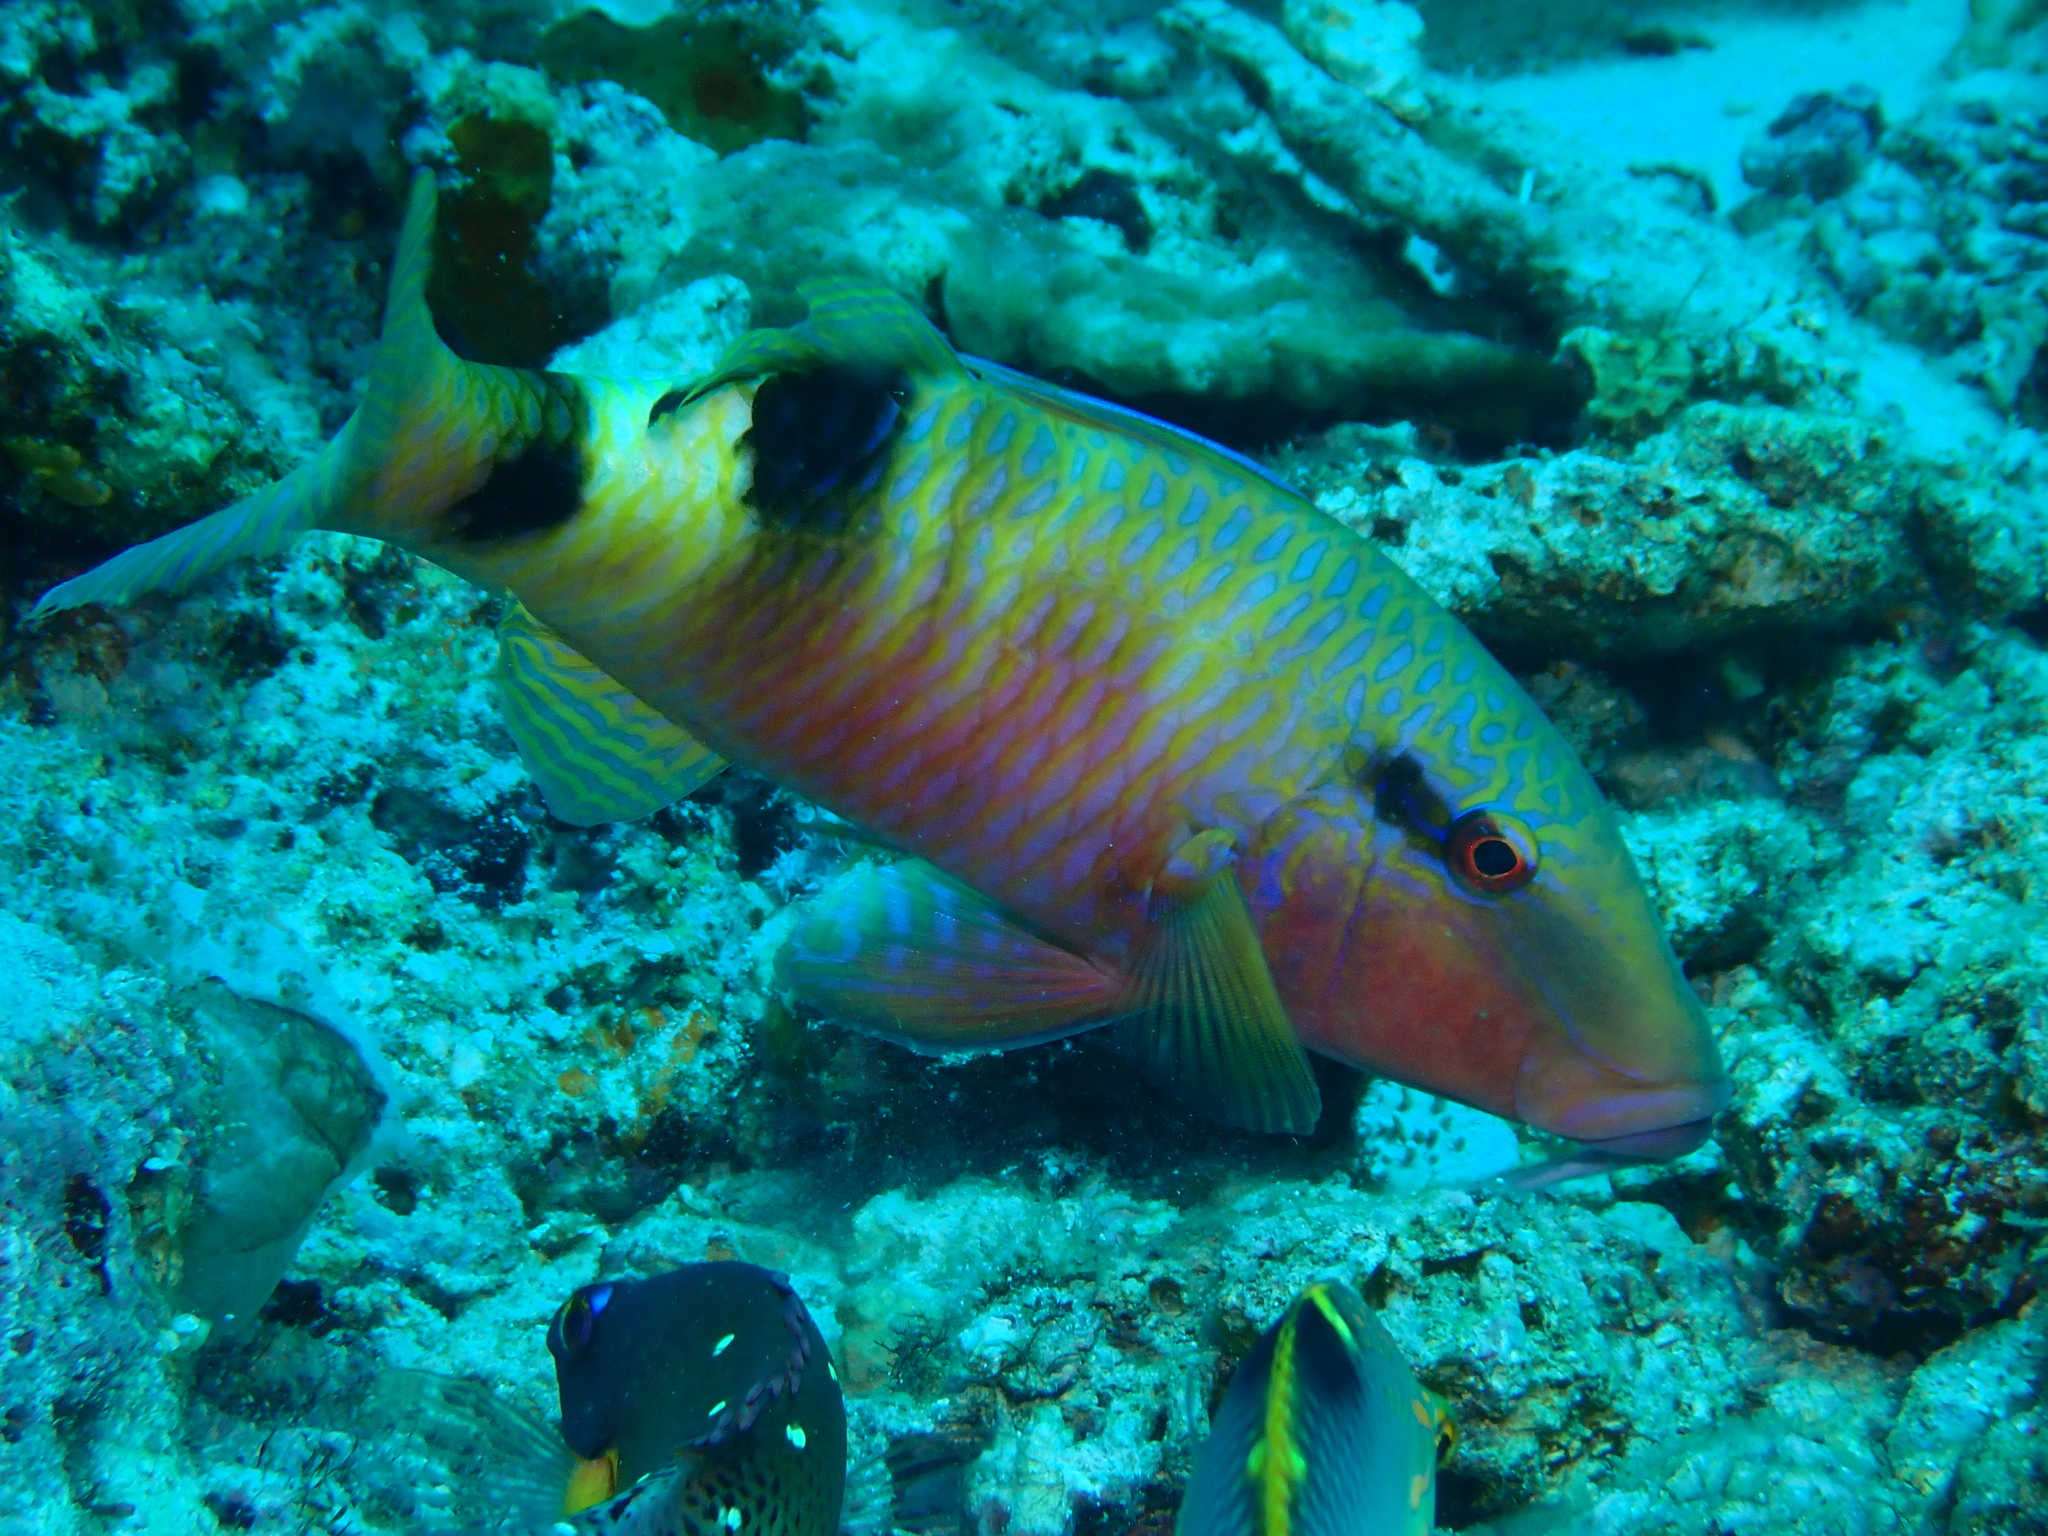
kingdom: Animalia
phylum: Chordata
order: Perciformes
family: Mullidae
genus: Parupeneus
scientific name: Parupeneus multifasciatus
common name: Manybar goatfish
